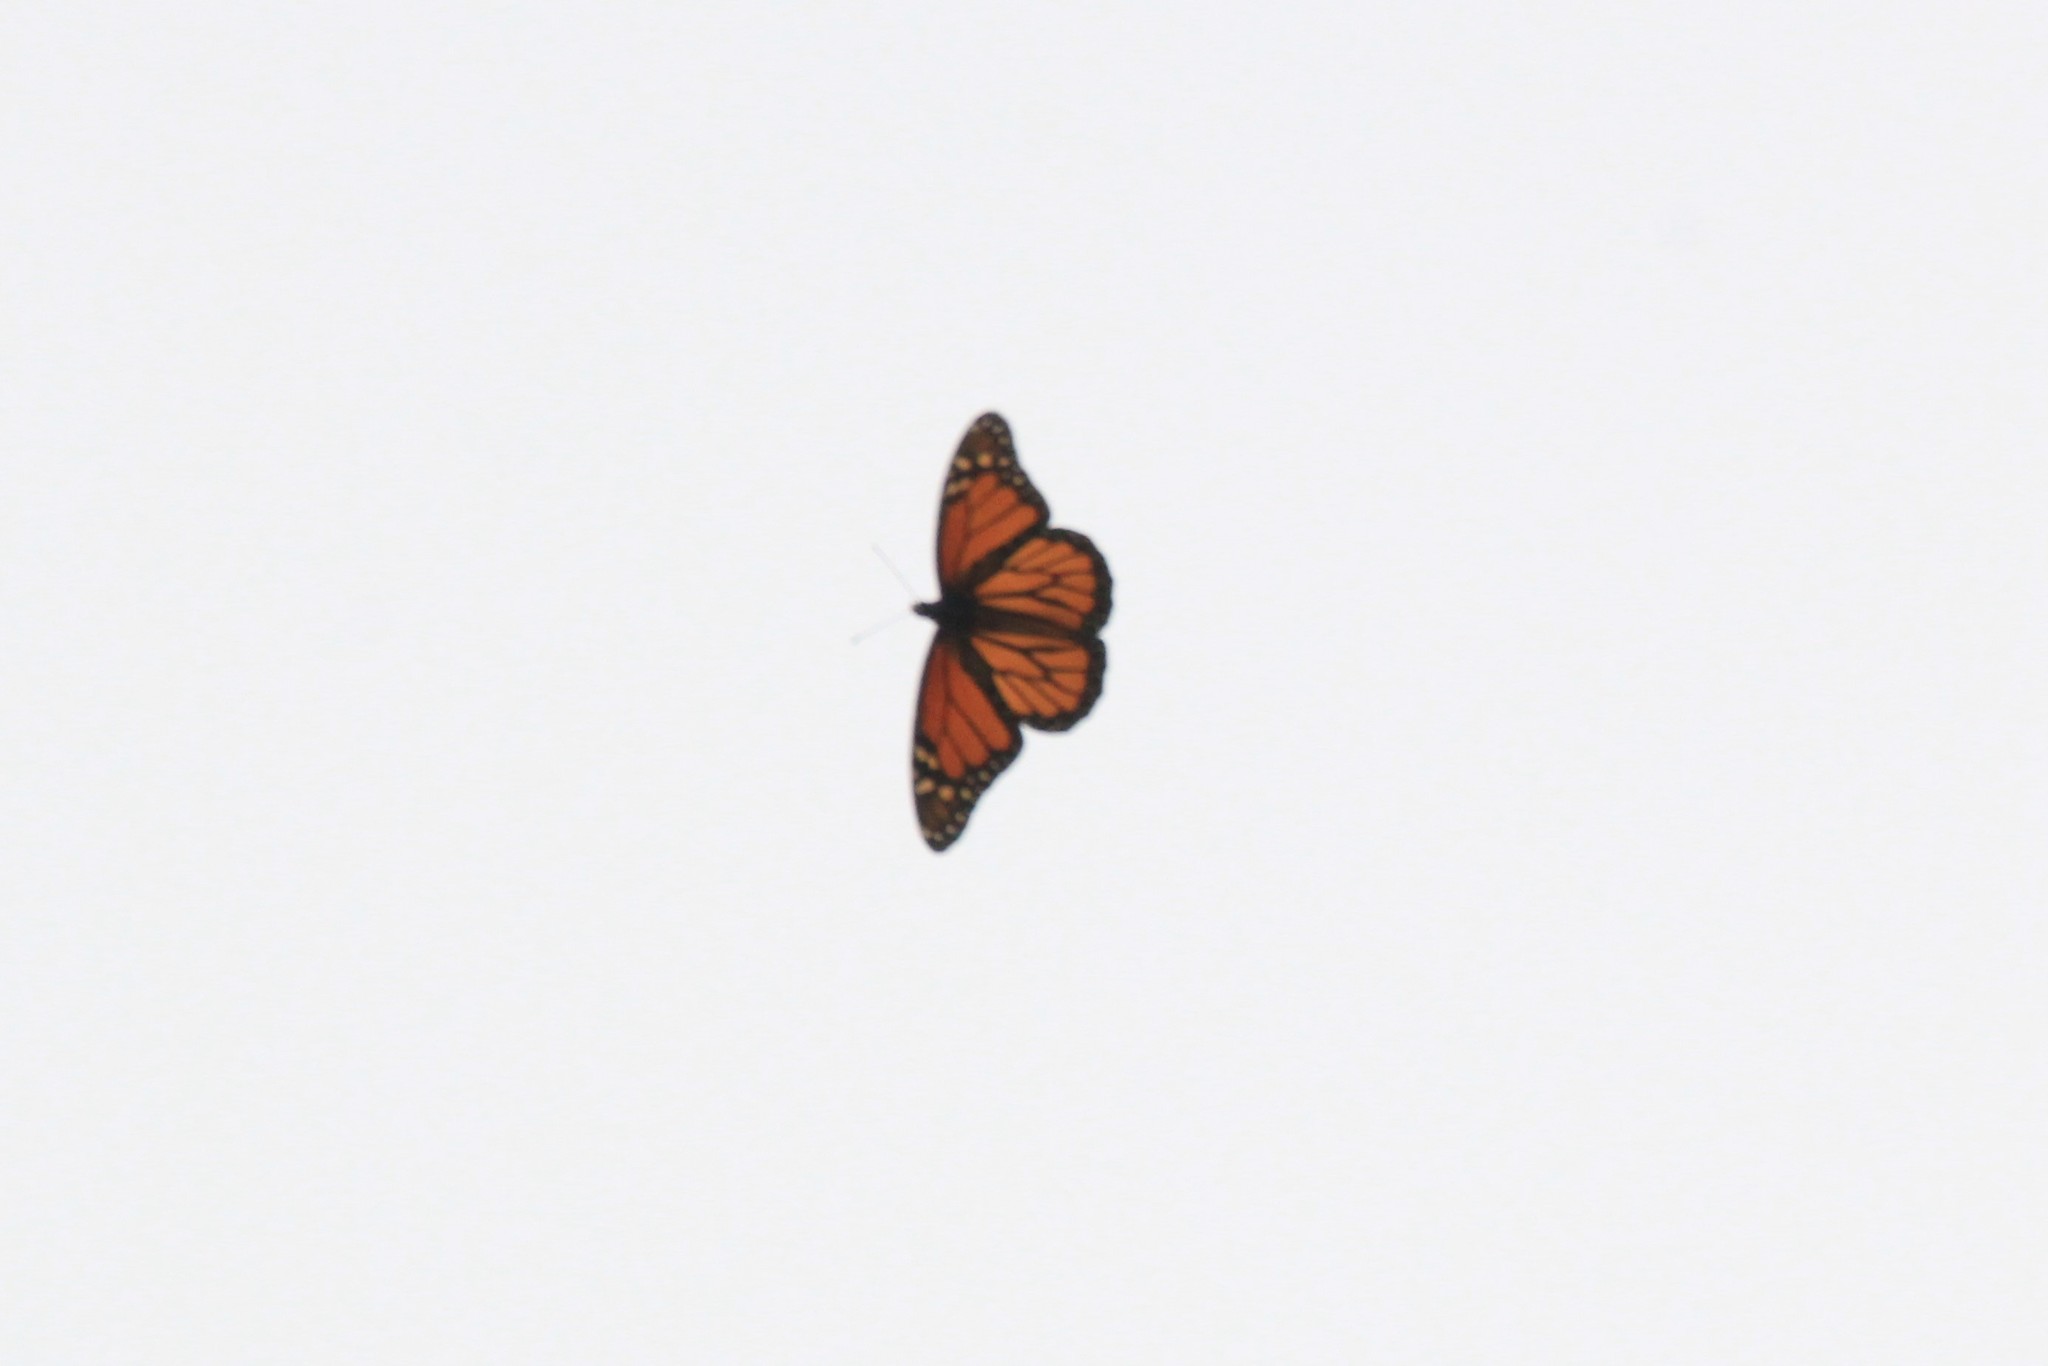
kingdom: Animalia
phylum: Arthropoda
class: Insecta
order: Lepidoptera
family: Nymphalidae
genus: Danaus
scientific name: Danaus plexippus
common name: Monarch
